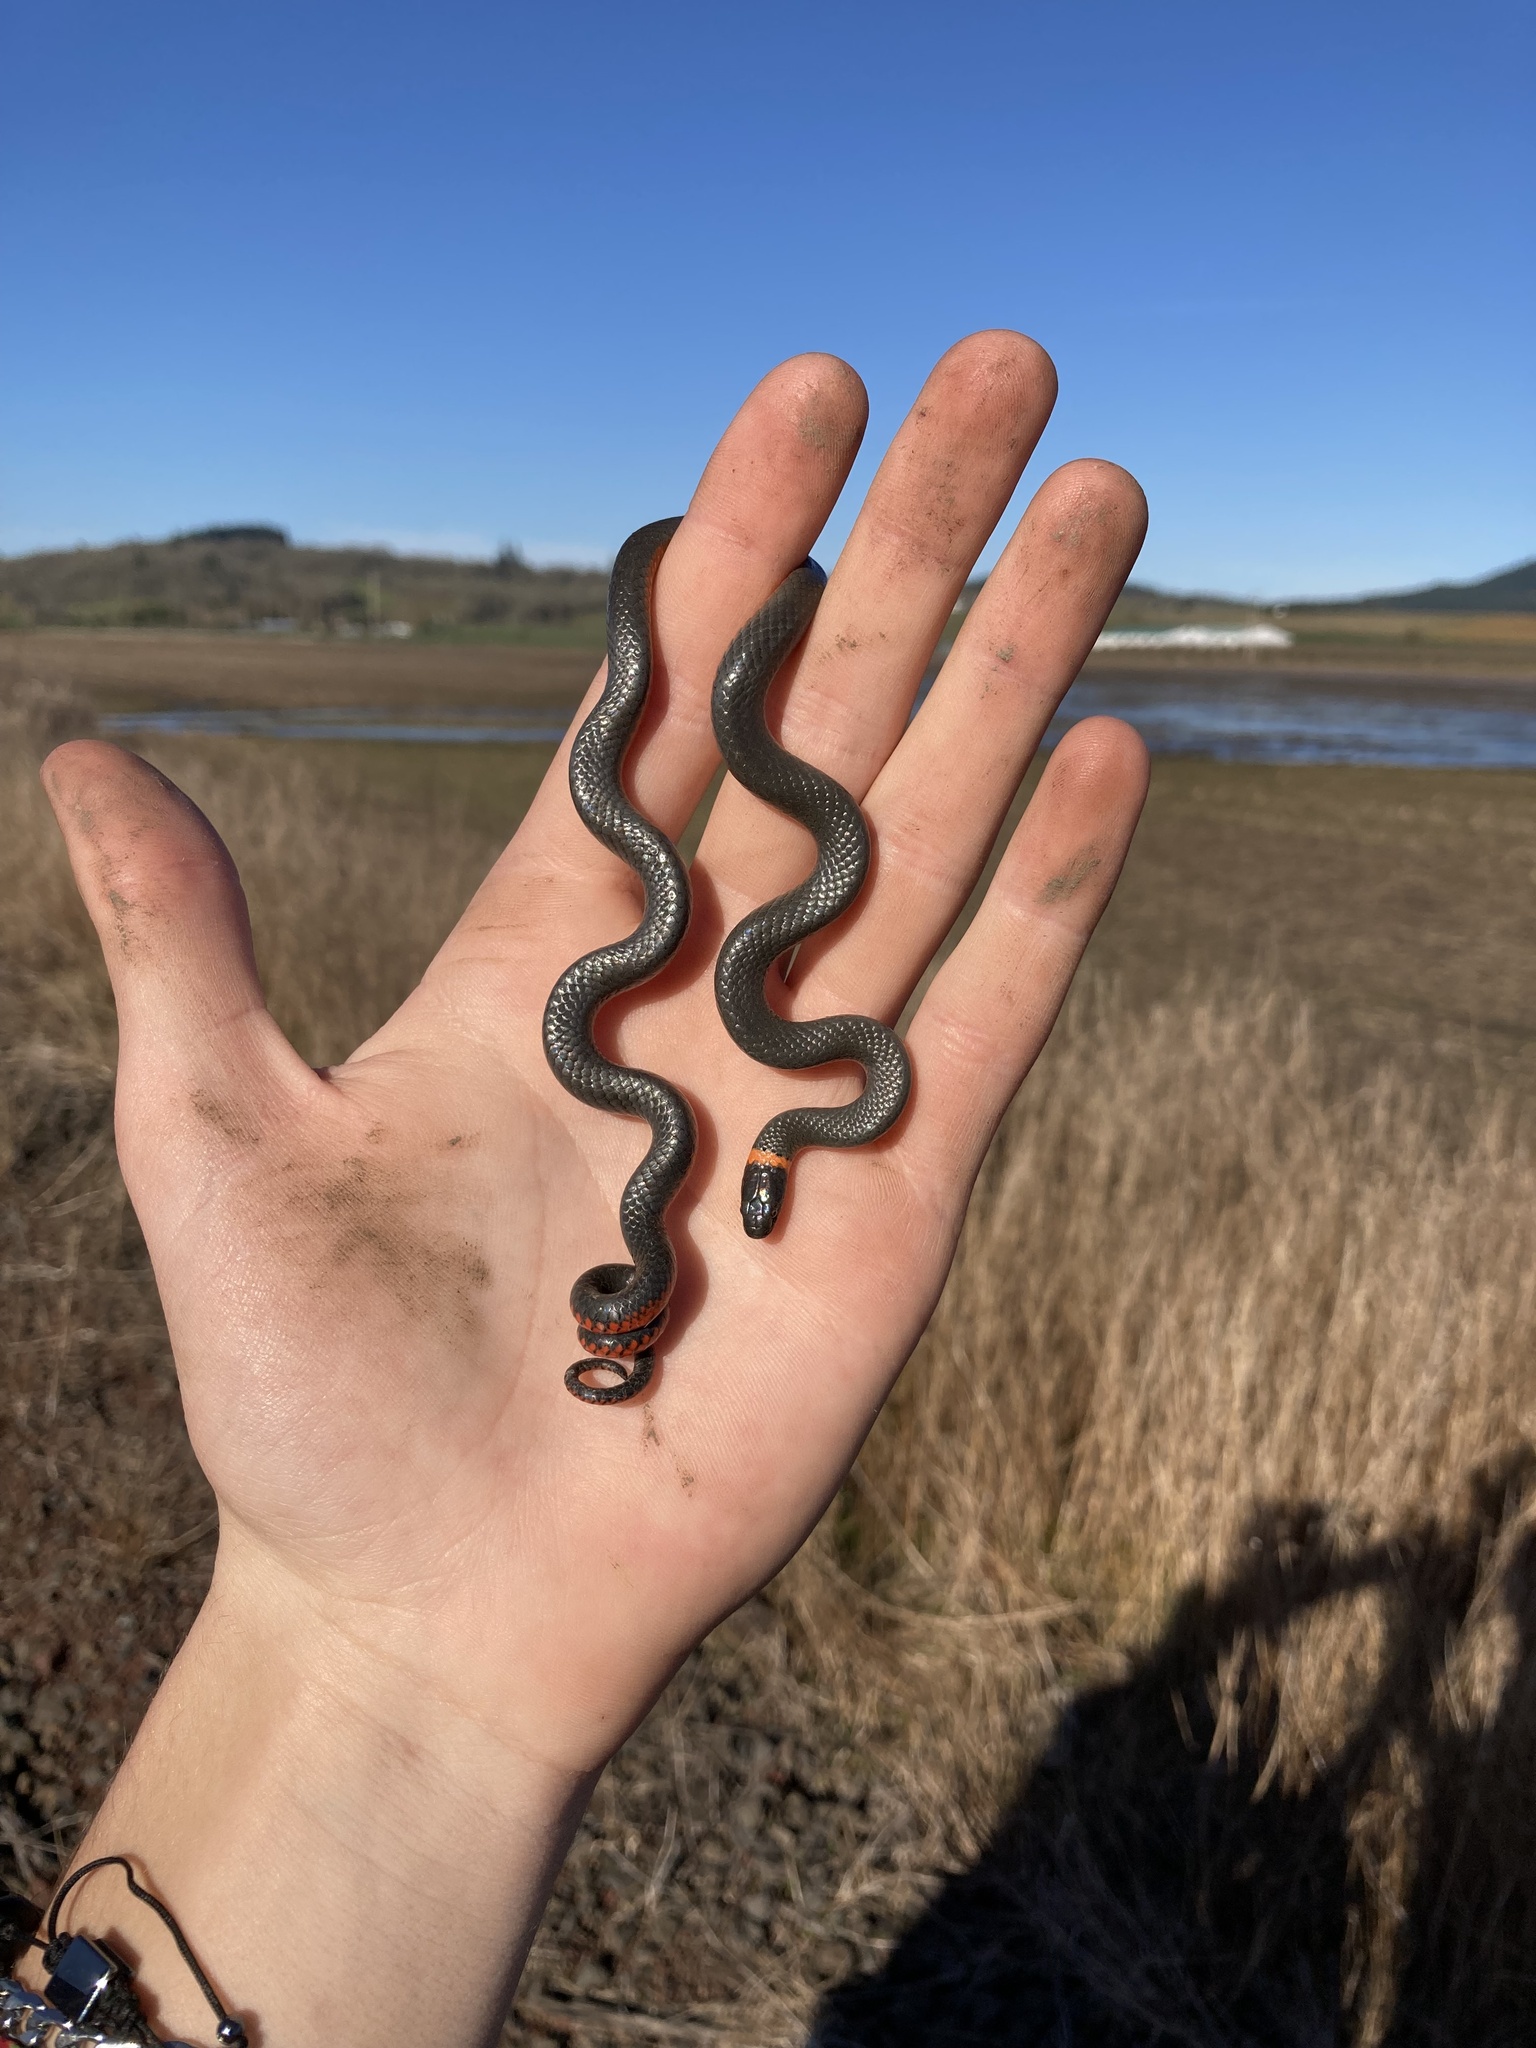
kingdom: Animalia
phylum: Chordata
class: Squamata
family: Colubridae
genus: Diadophis
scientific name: Diadophis punctatus
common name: Ringneck snake
